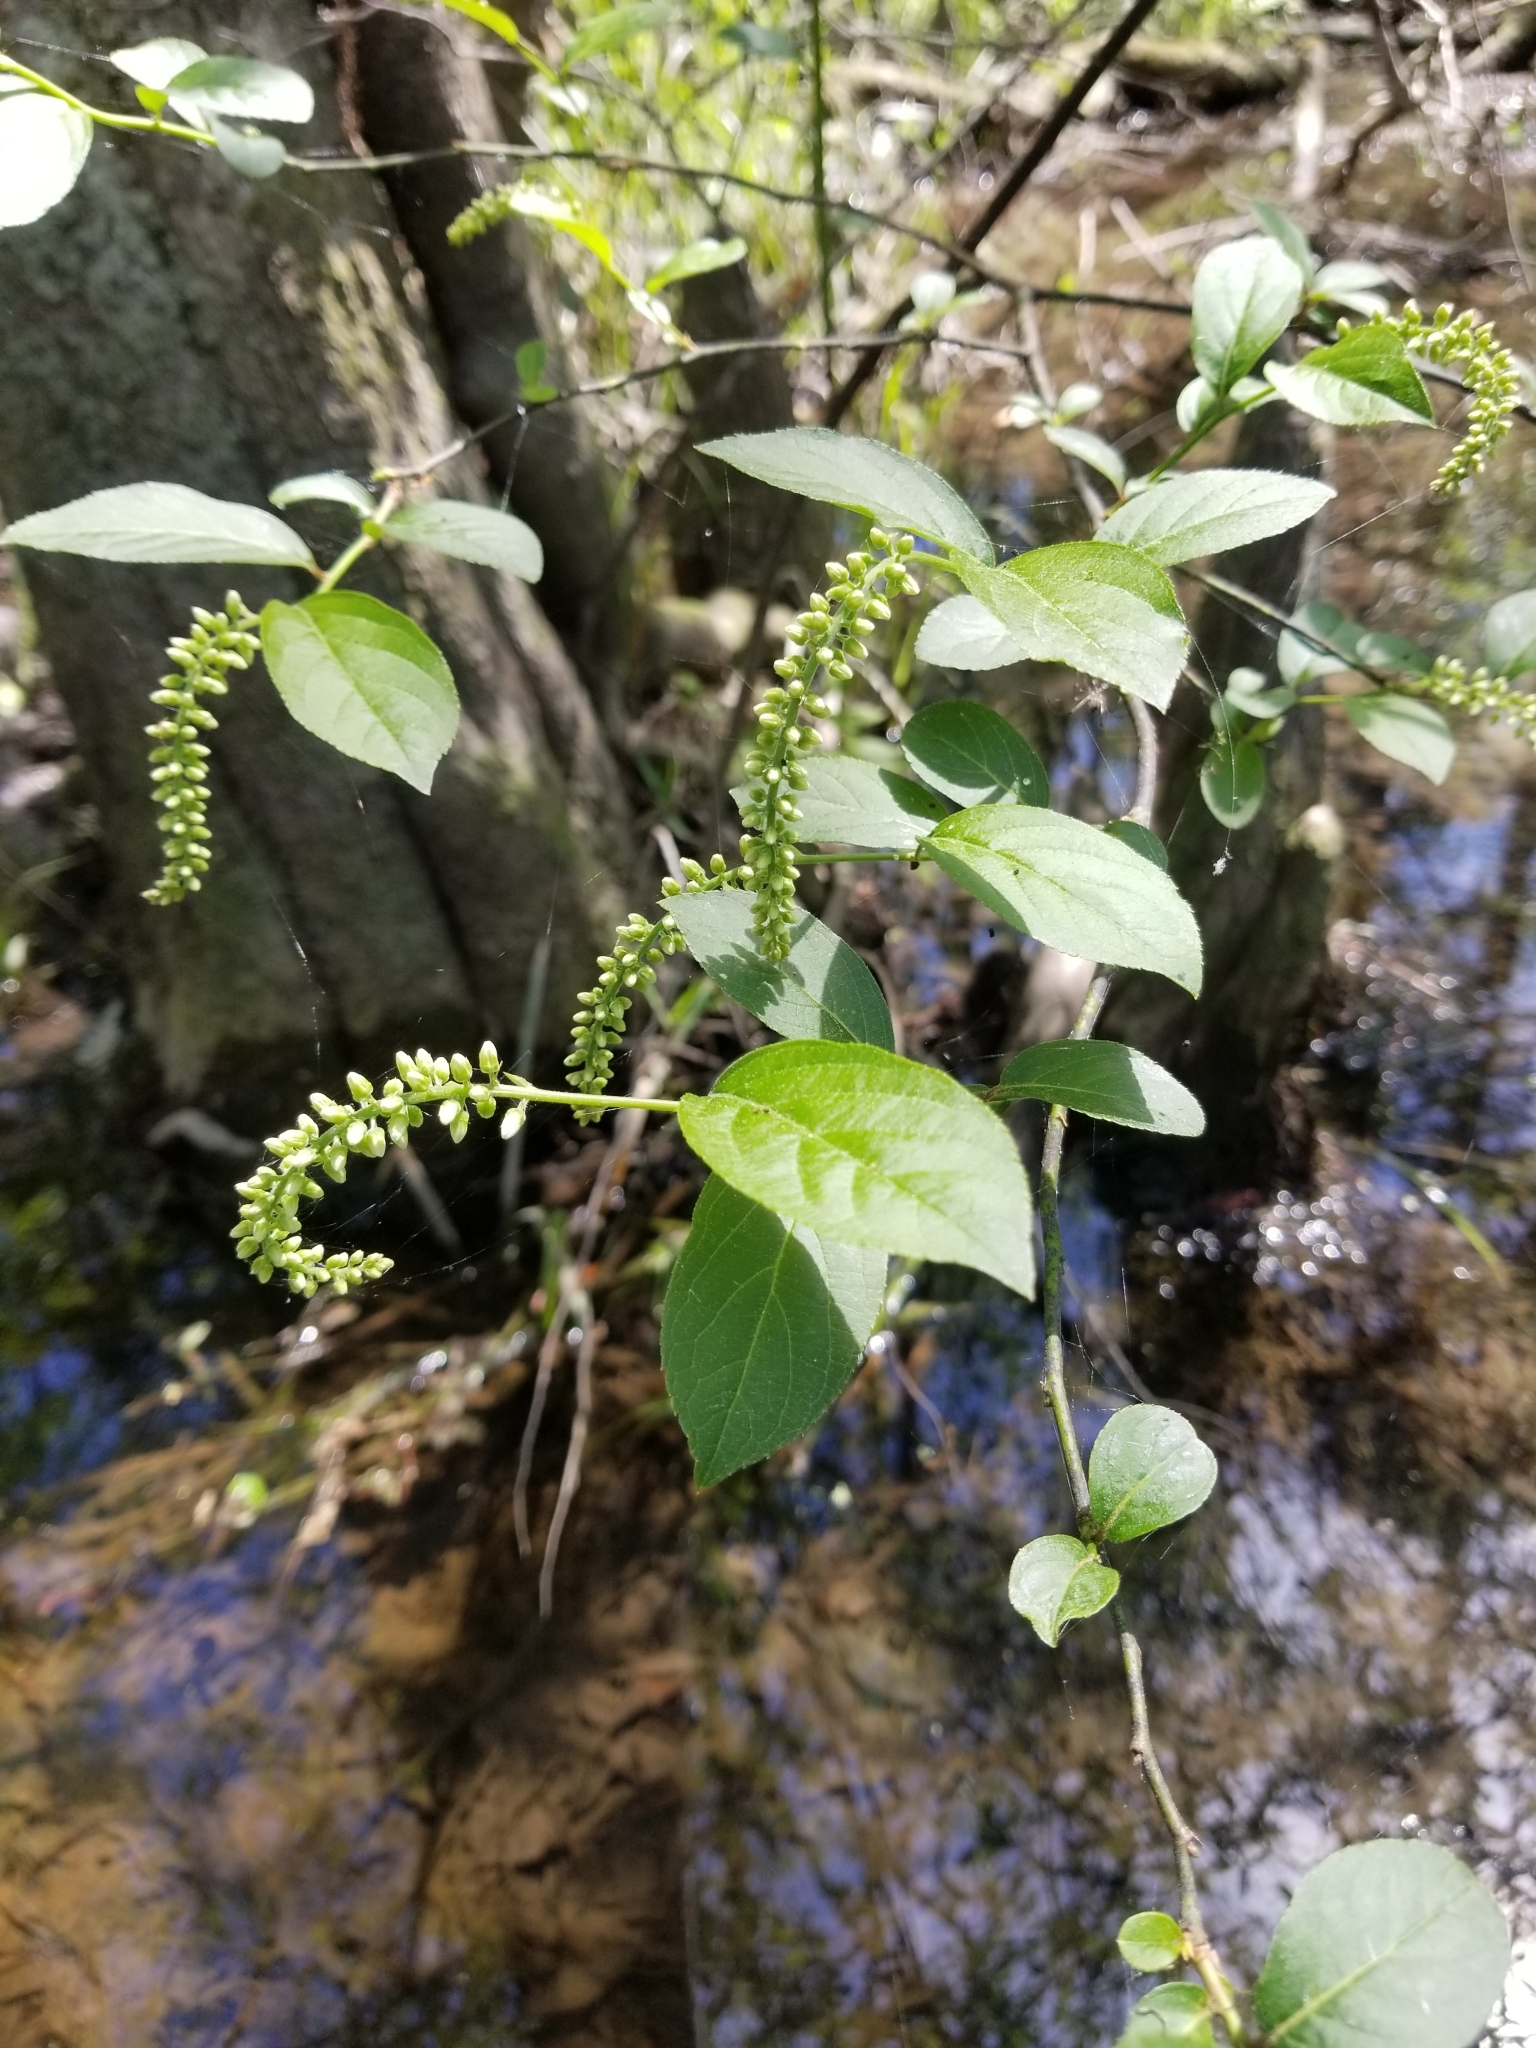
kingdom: Plantae
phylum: Tracheophyta
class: Magnoliopsida
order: Saxifragales
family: Iteaceae
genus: Itea
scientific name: Itea virginica
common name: Sweetspire
